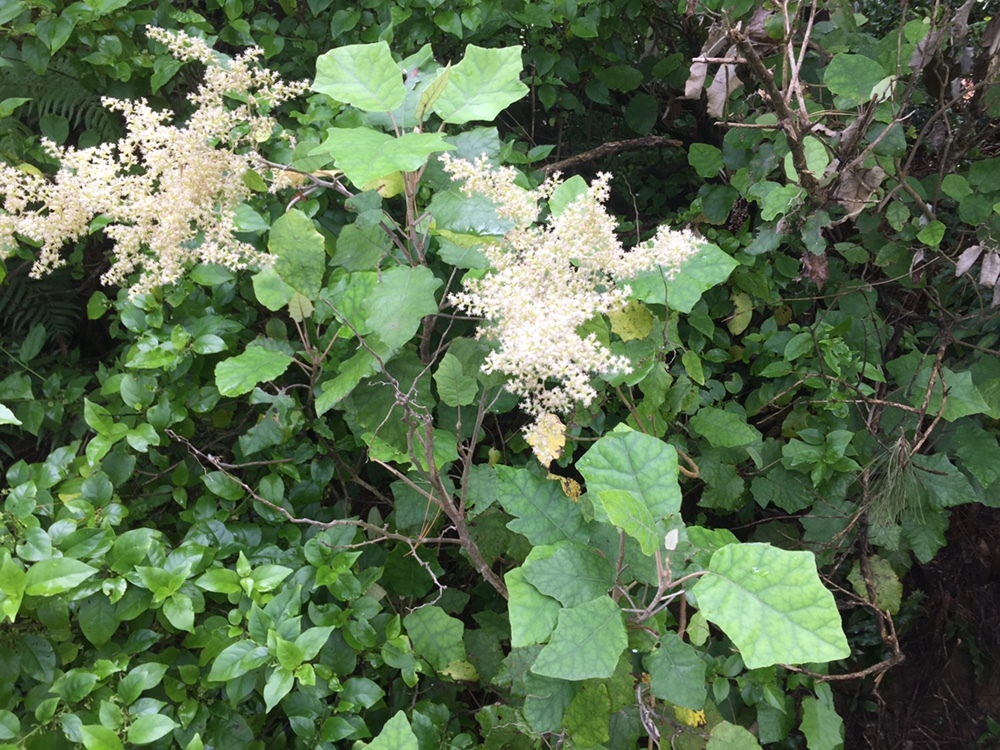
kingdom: Plantae
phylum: Tracheophyta
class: Magnoliopsida
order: Asterales
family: Asteraceae
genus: Brachyglottis
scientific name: Brachyglottis repanda
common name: Hedge ragwort
